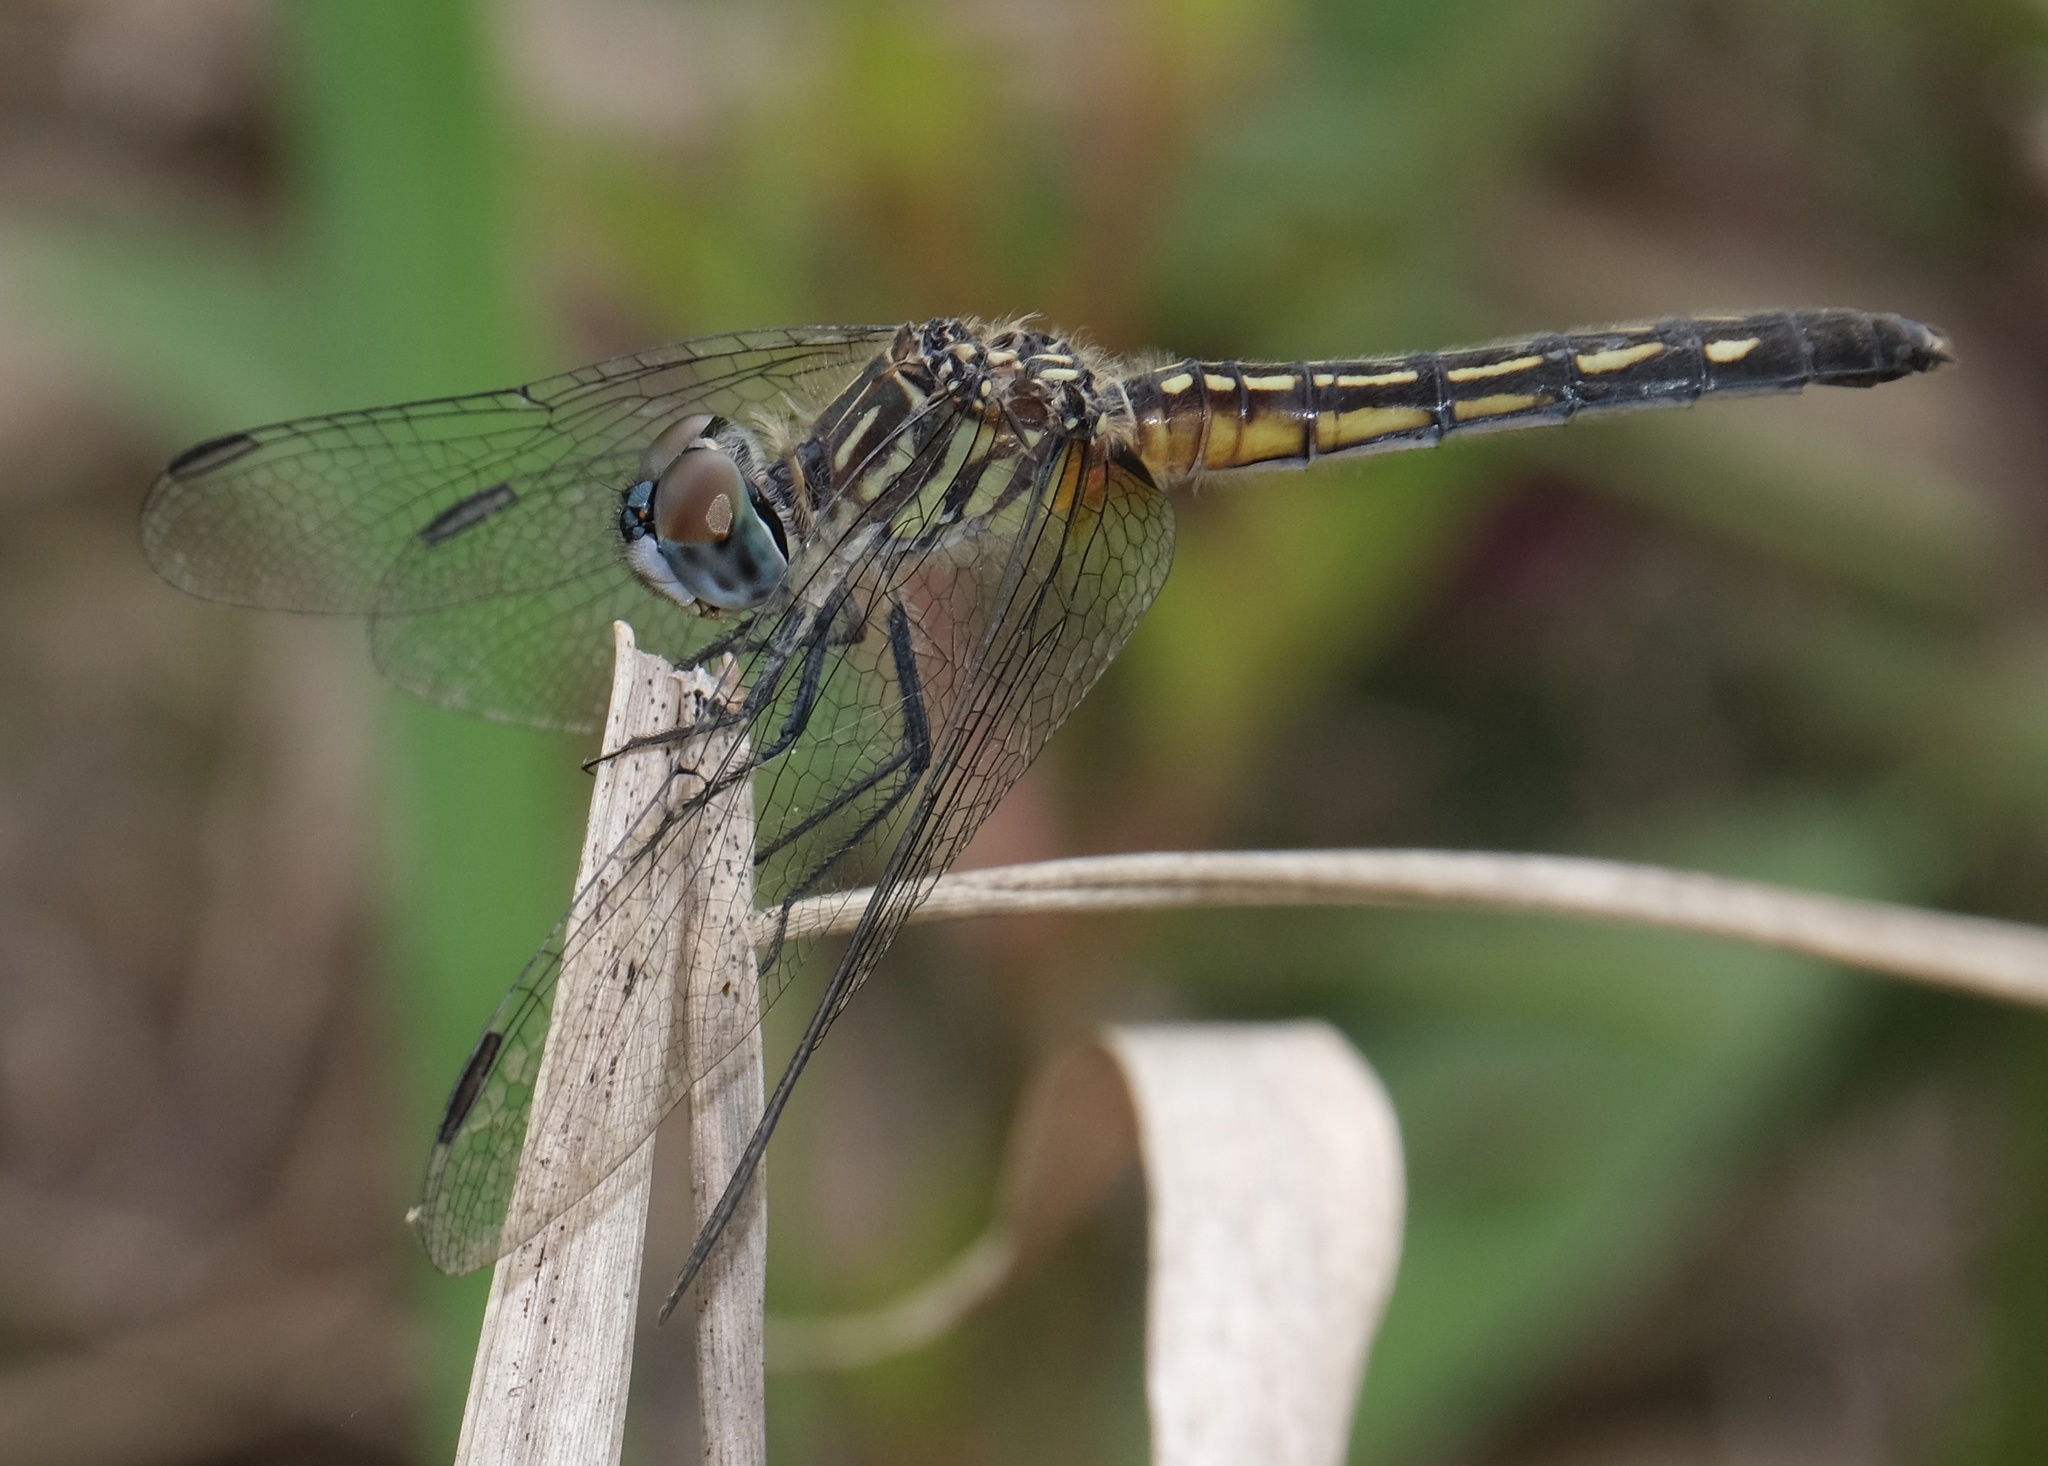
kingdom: Animalia
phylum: Arthropoda
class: Insecta
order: Odonata
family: Libellulidae
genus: Pachydiplax
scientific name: Pachydiplax longipennis
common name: Blue dasher
